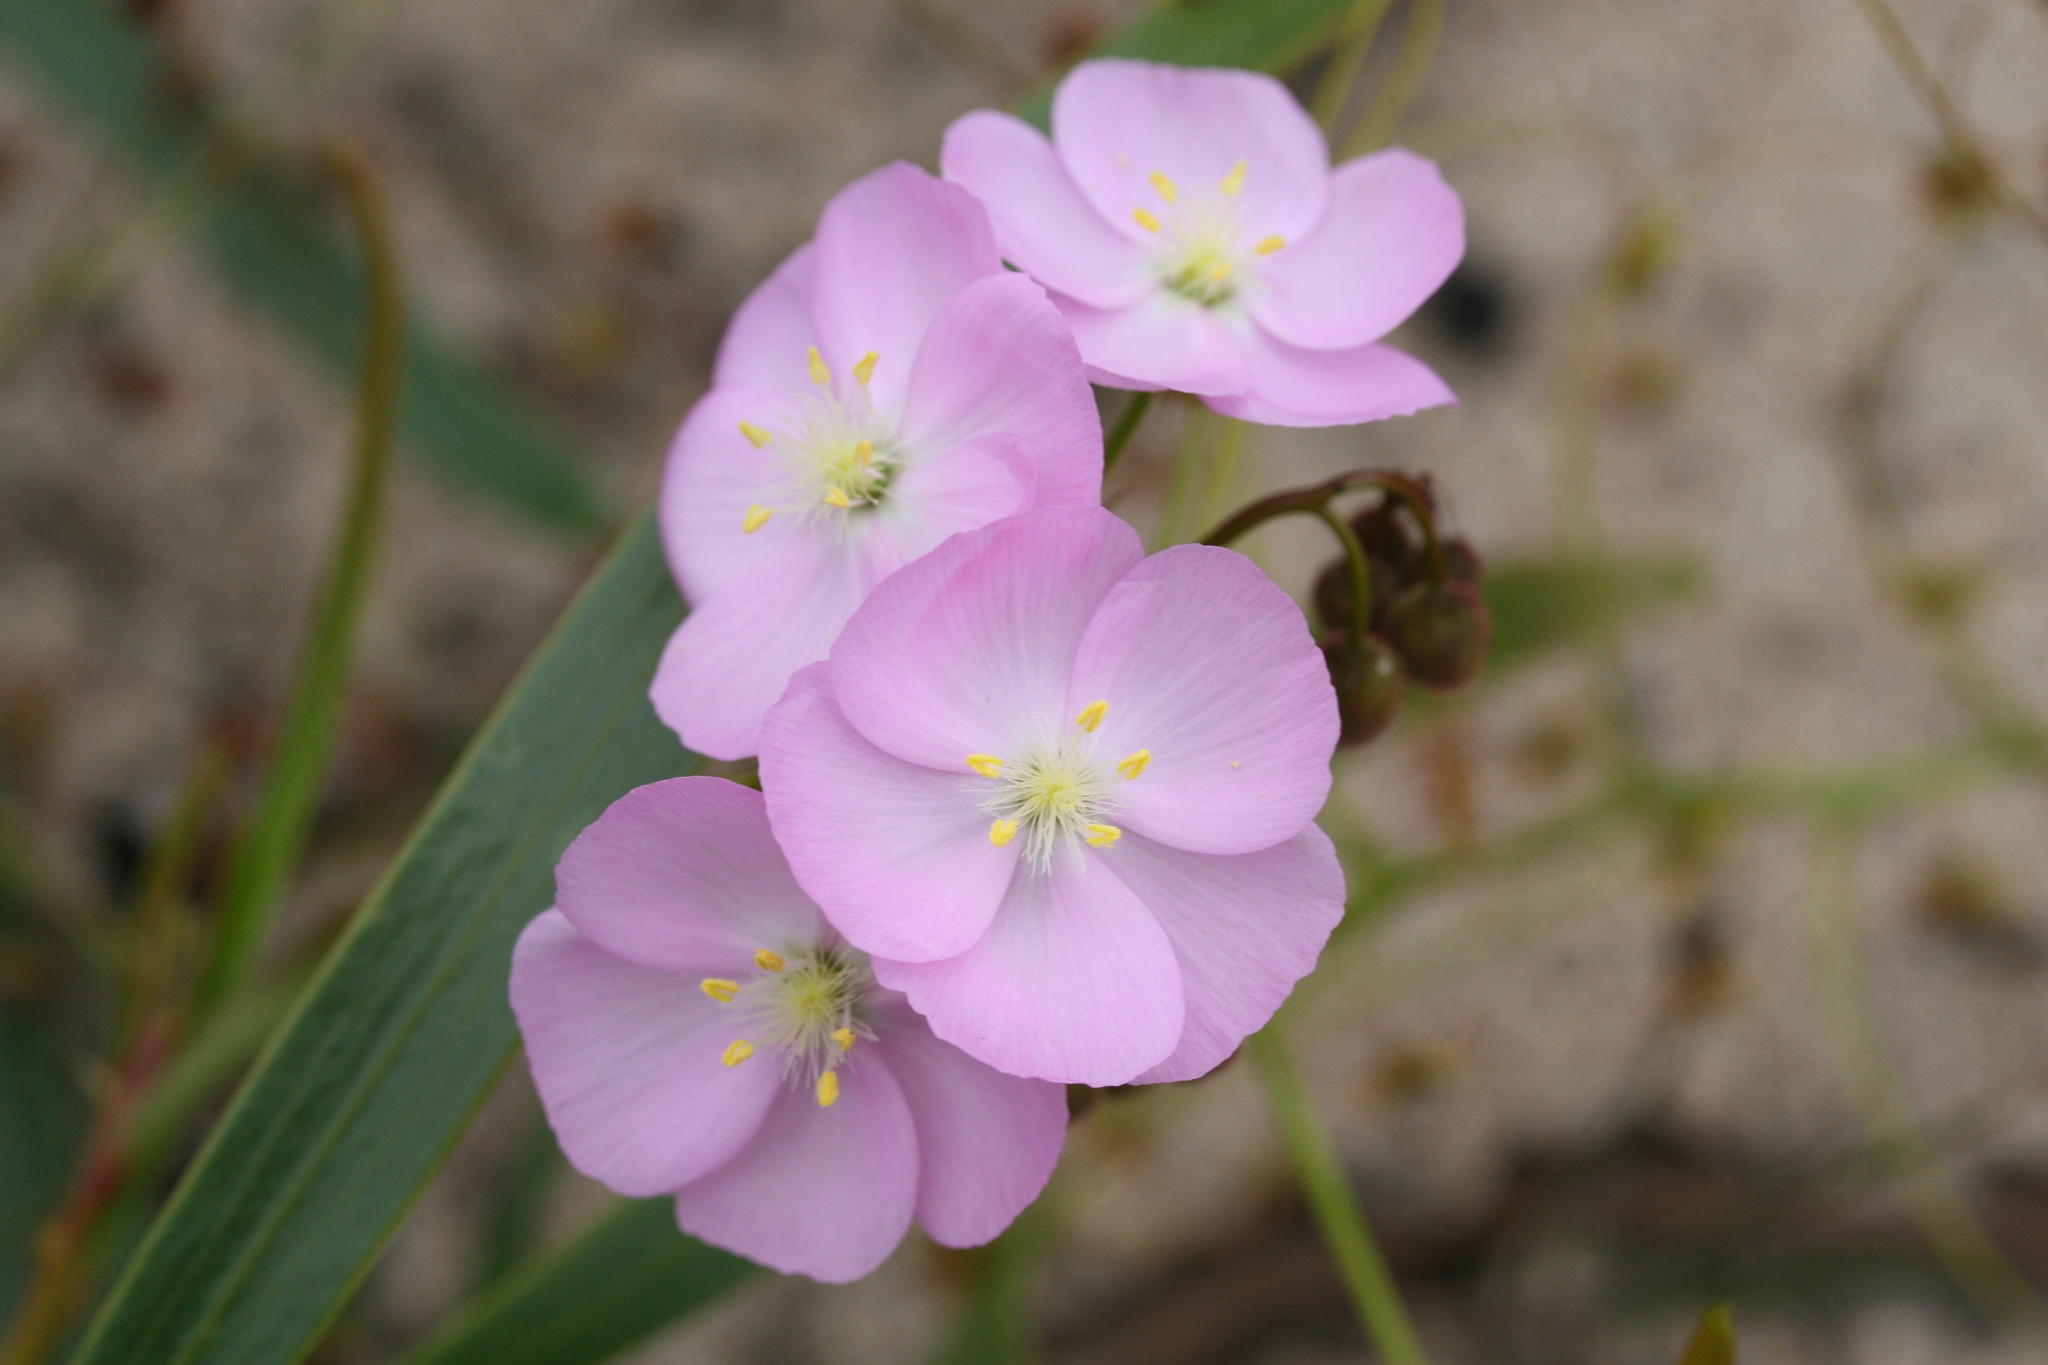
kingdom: Plantae
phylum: Tracheophyta
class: Magnoliopsida
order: Caryophyllales
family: Droseraceae
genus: Drosera
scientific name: Drosera
